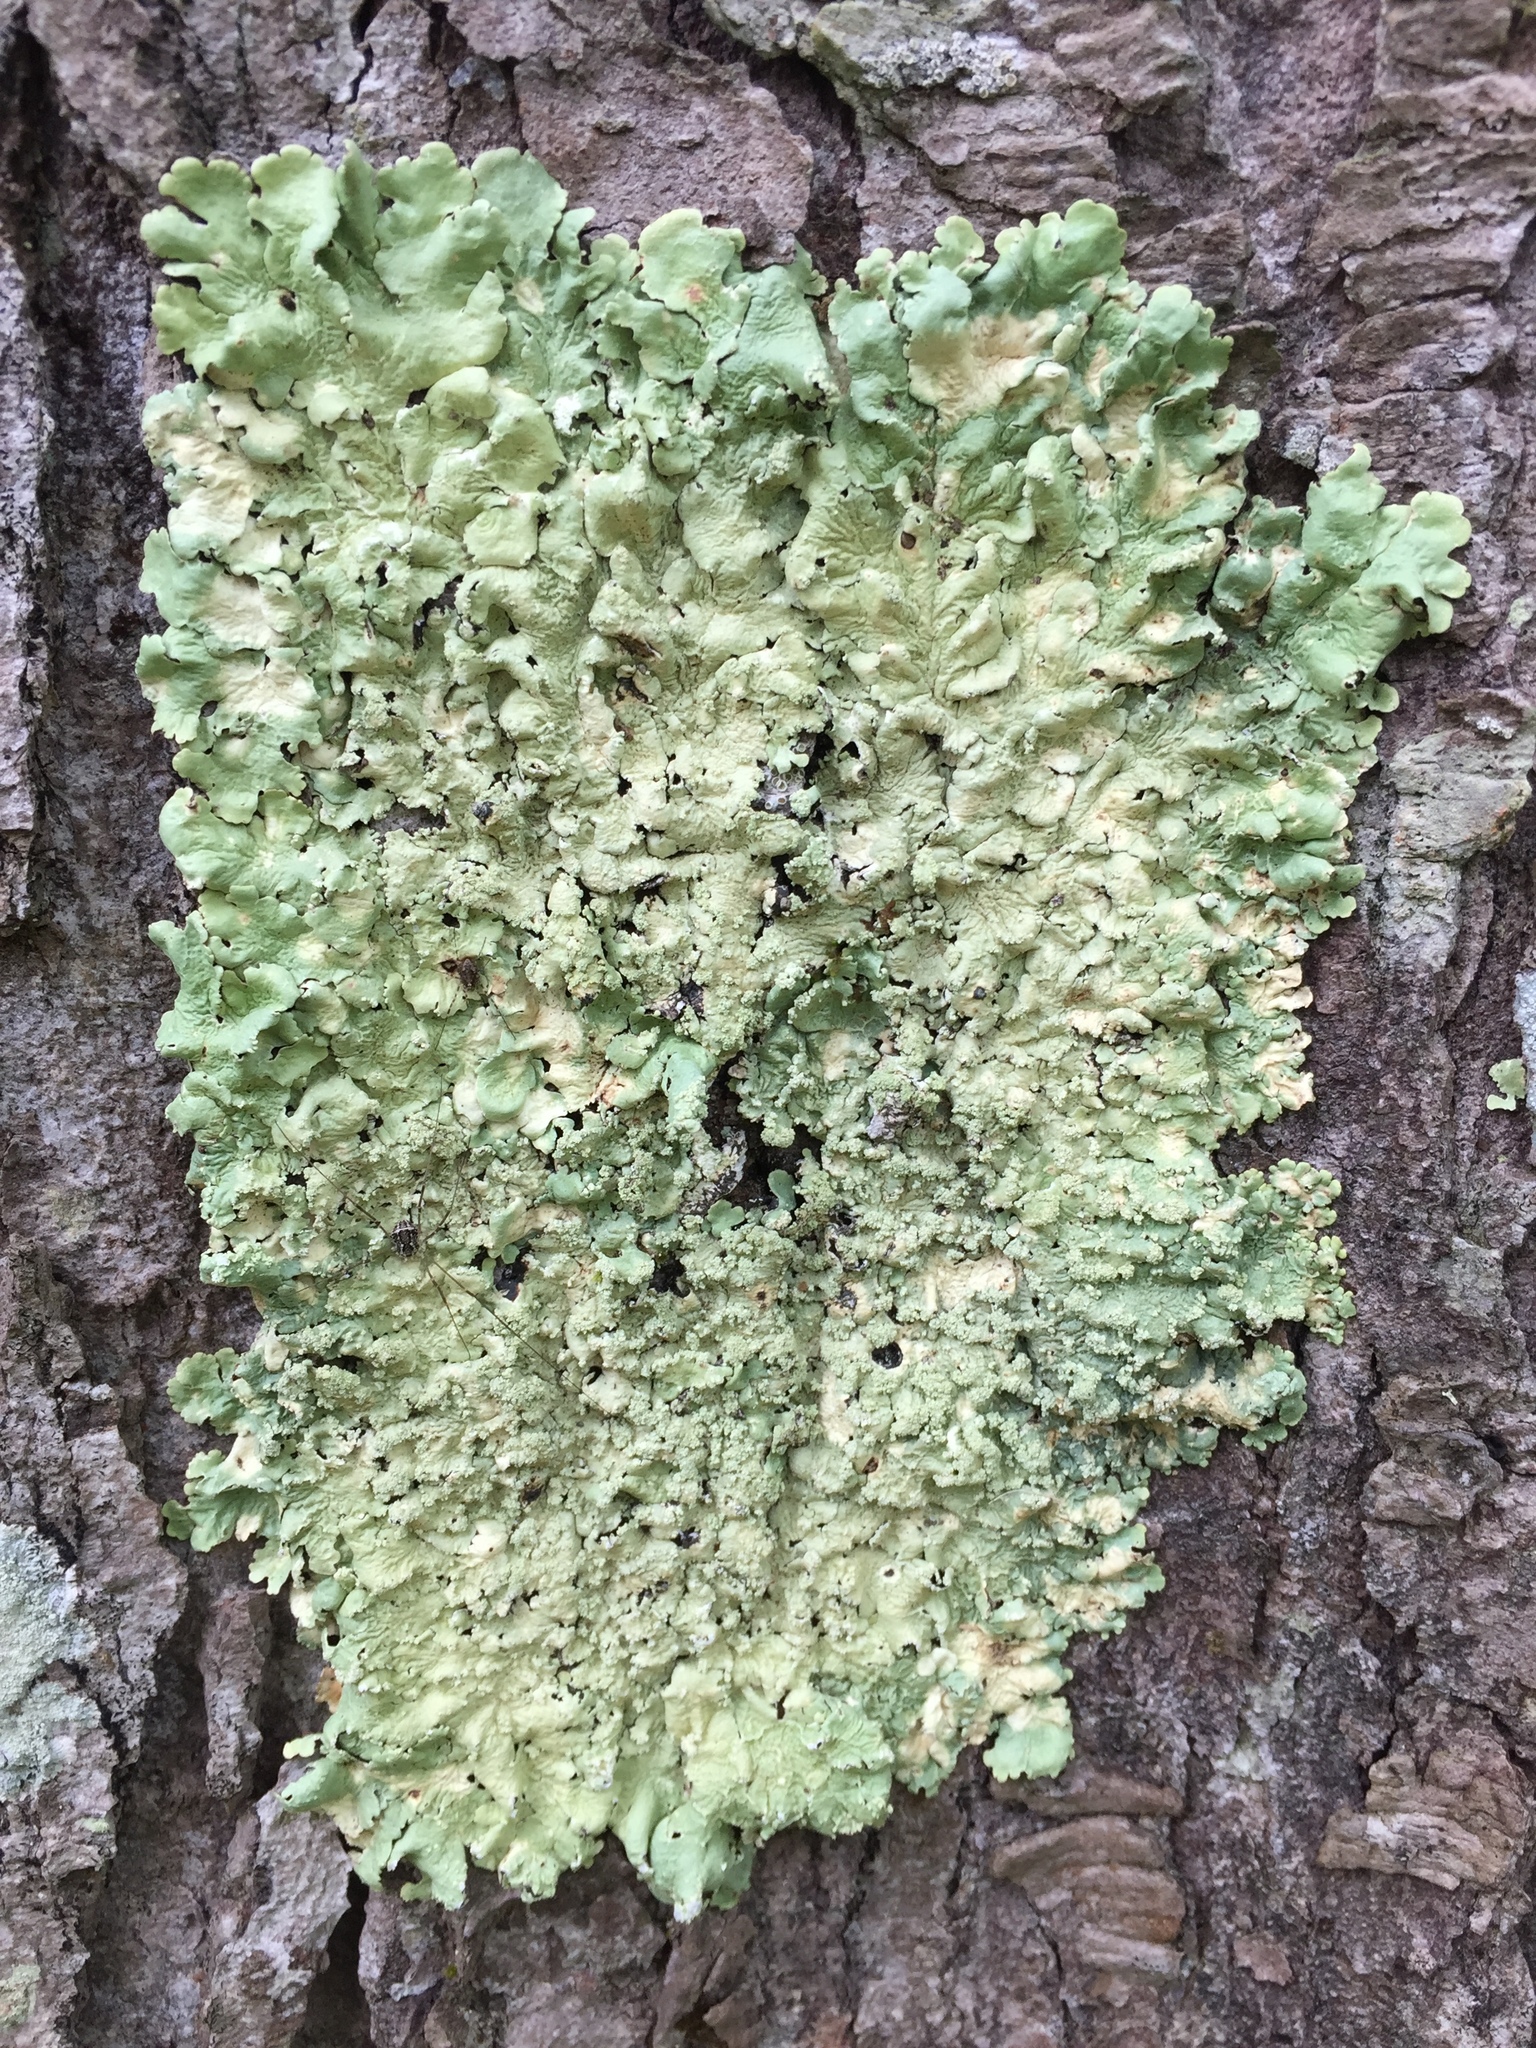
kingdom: Fungi
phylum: Ascomycota
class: Lecanoromycetes
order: Lecanorales
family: Parmeliaceae
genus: Flavoparmelia
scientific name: Flavoparmelia caperata
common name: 40-mile per hour lichen
